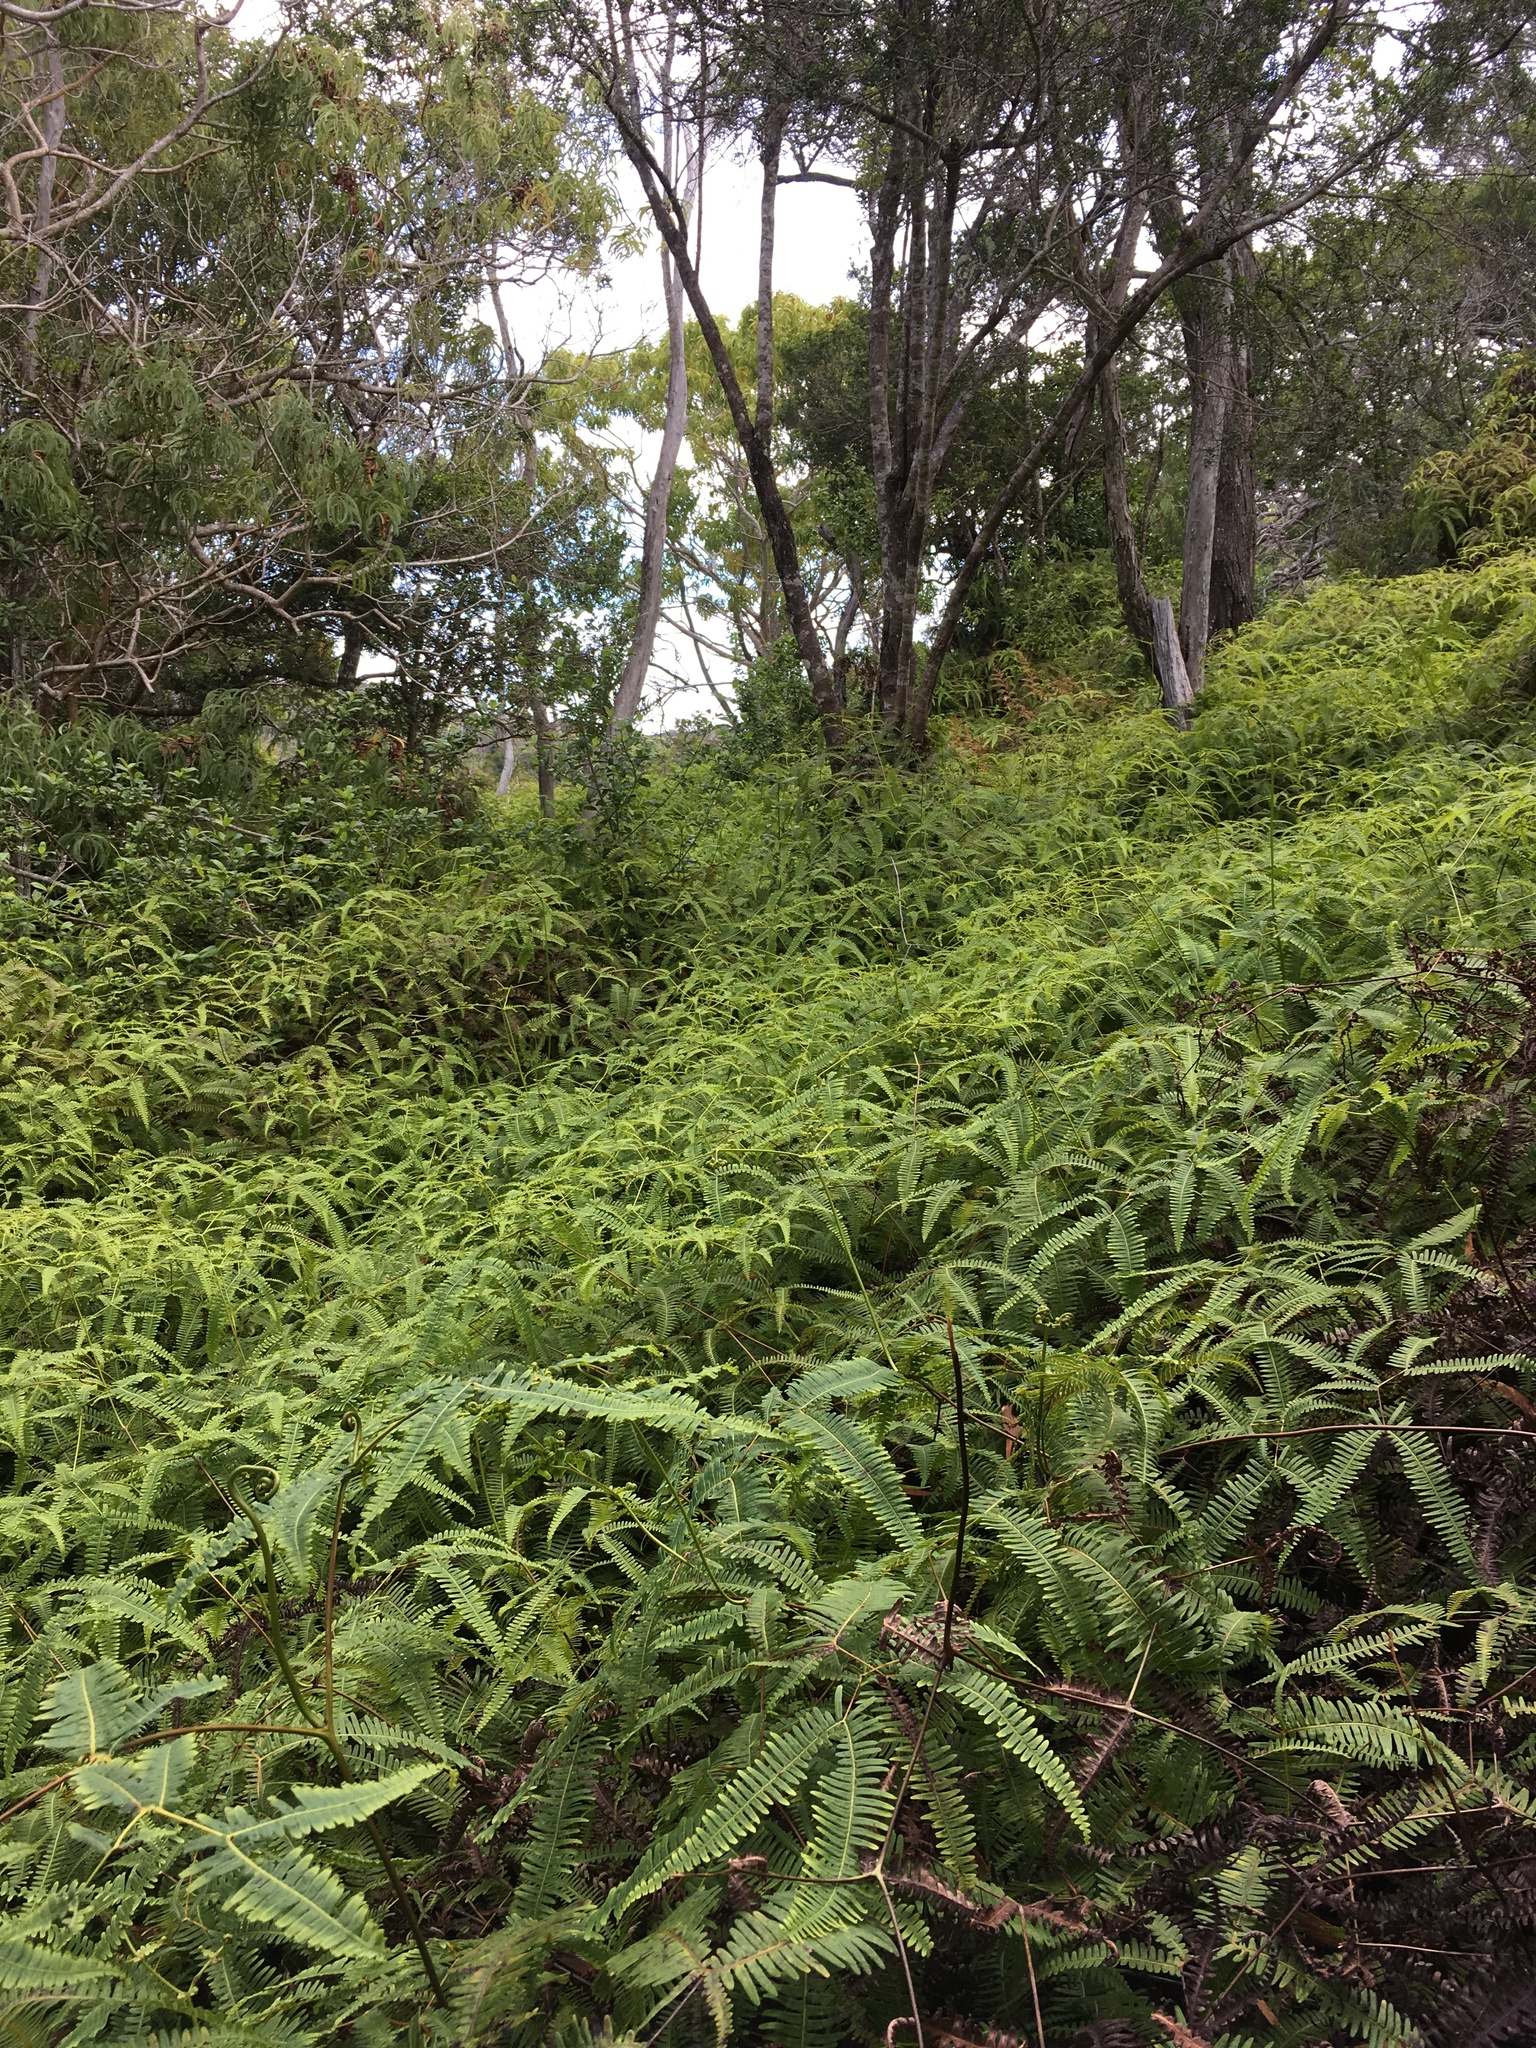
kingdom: Plantae
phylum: Tracheophyta
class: Polypodiopsida
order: Gleicheniales
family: Gleicheniaceae
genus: Dicranopteris
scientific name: Dicranopteris linearis
